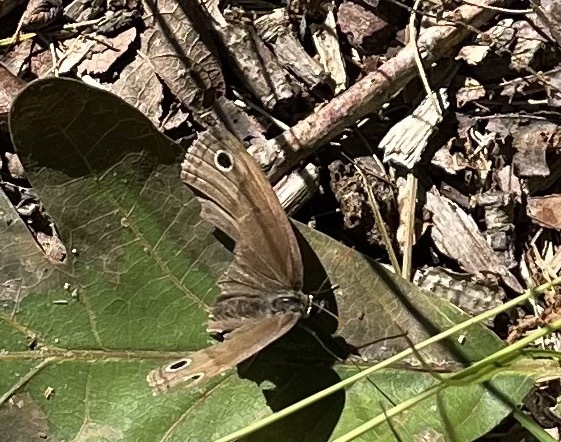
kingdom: Animalia
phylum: Arthropoda
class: Insecta
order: Lepidoptera
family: Nymphalidae
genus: Euptychia
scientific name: Euptychia cymela
